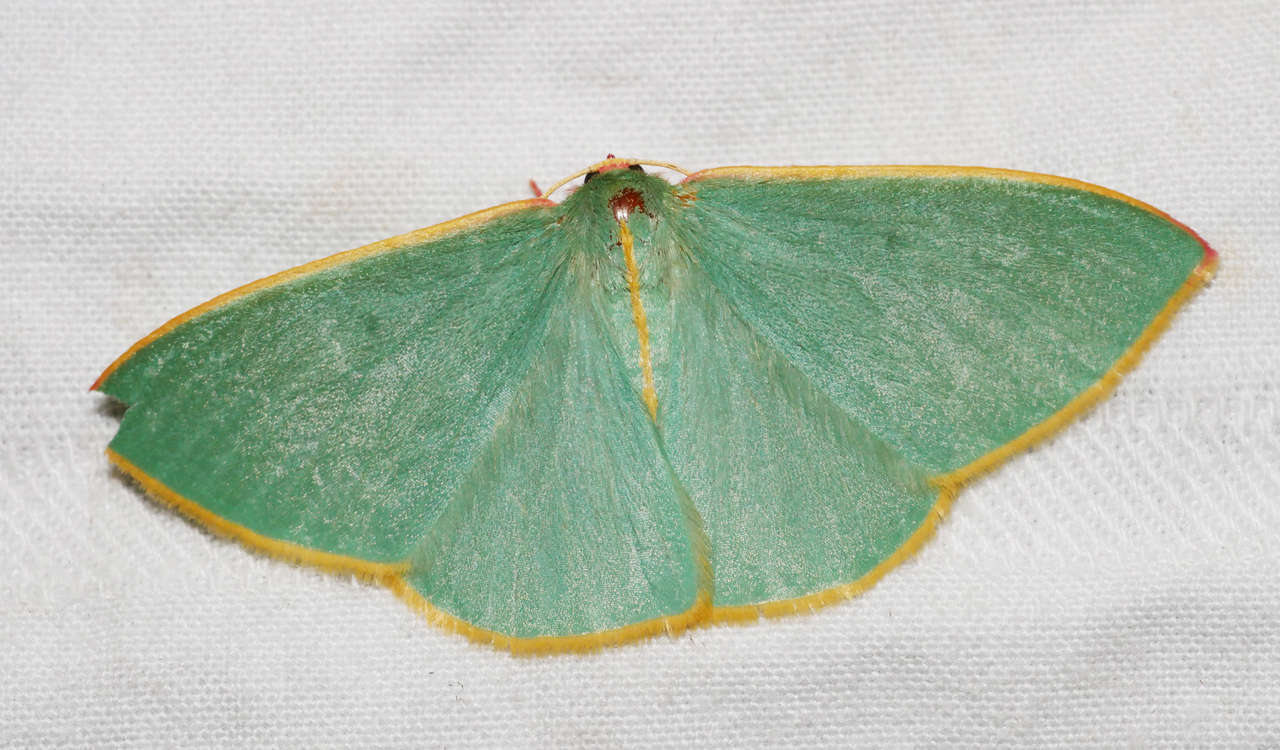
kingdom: Animalia
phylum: Arthropoda
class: Insecta
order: Lepidoptera
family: Geometridae
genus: Chlorocoma
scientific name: Chlorocoma assimilis
